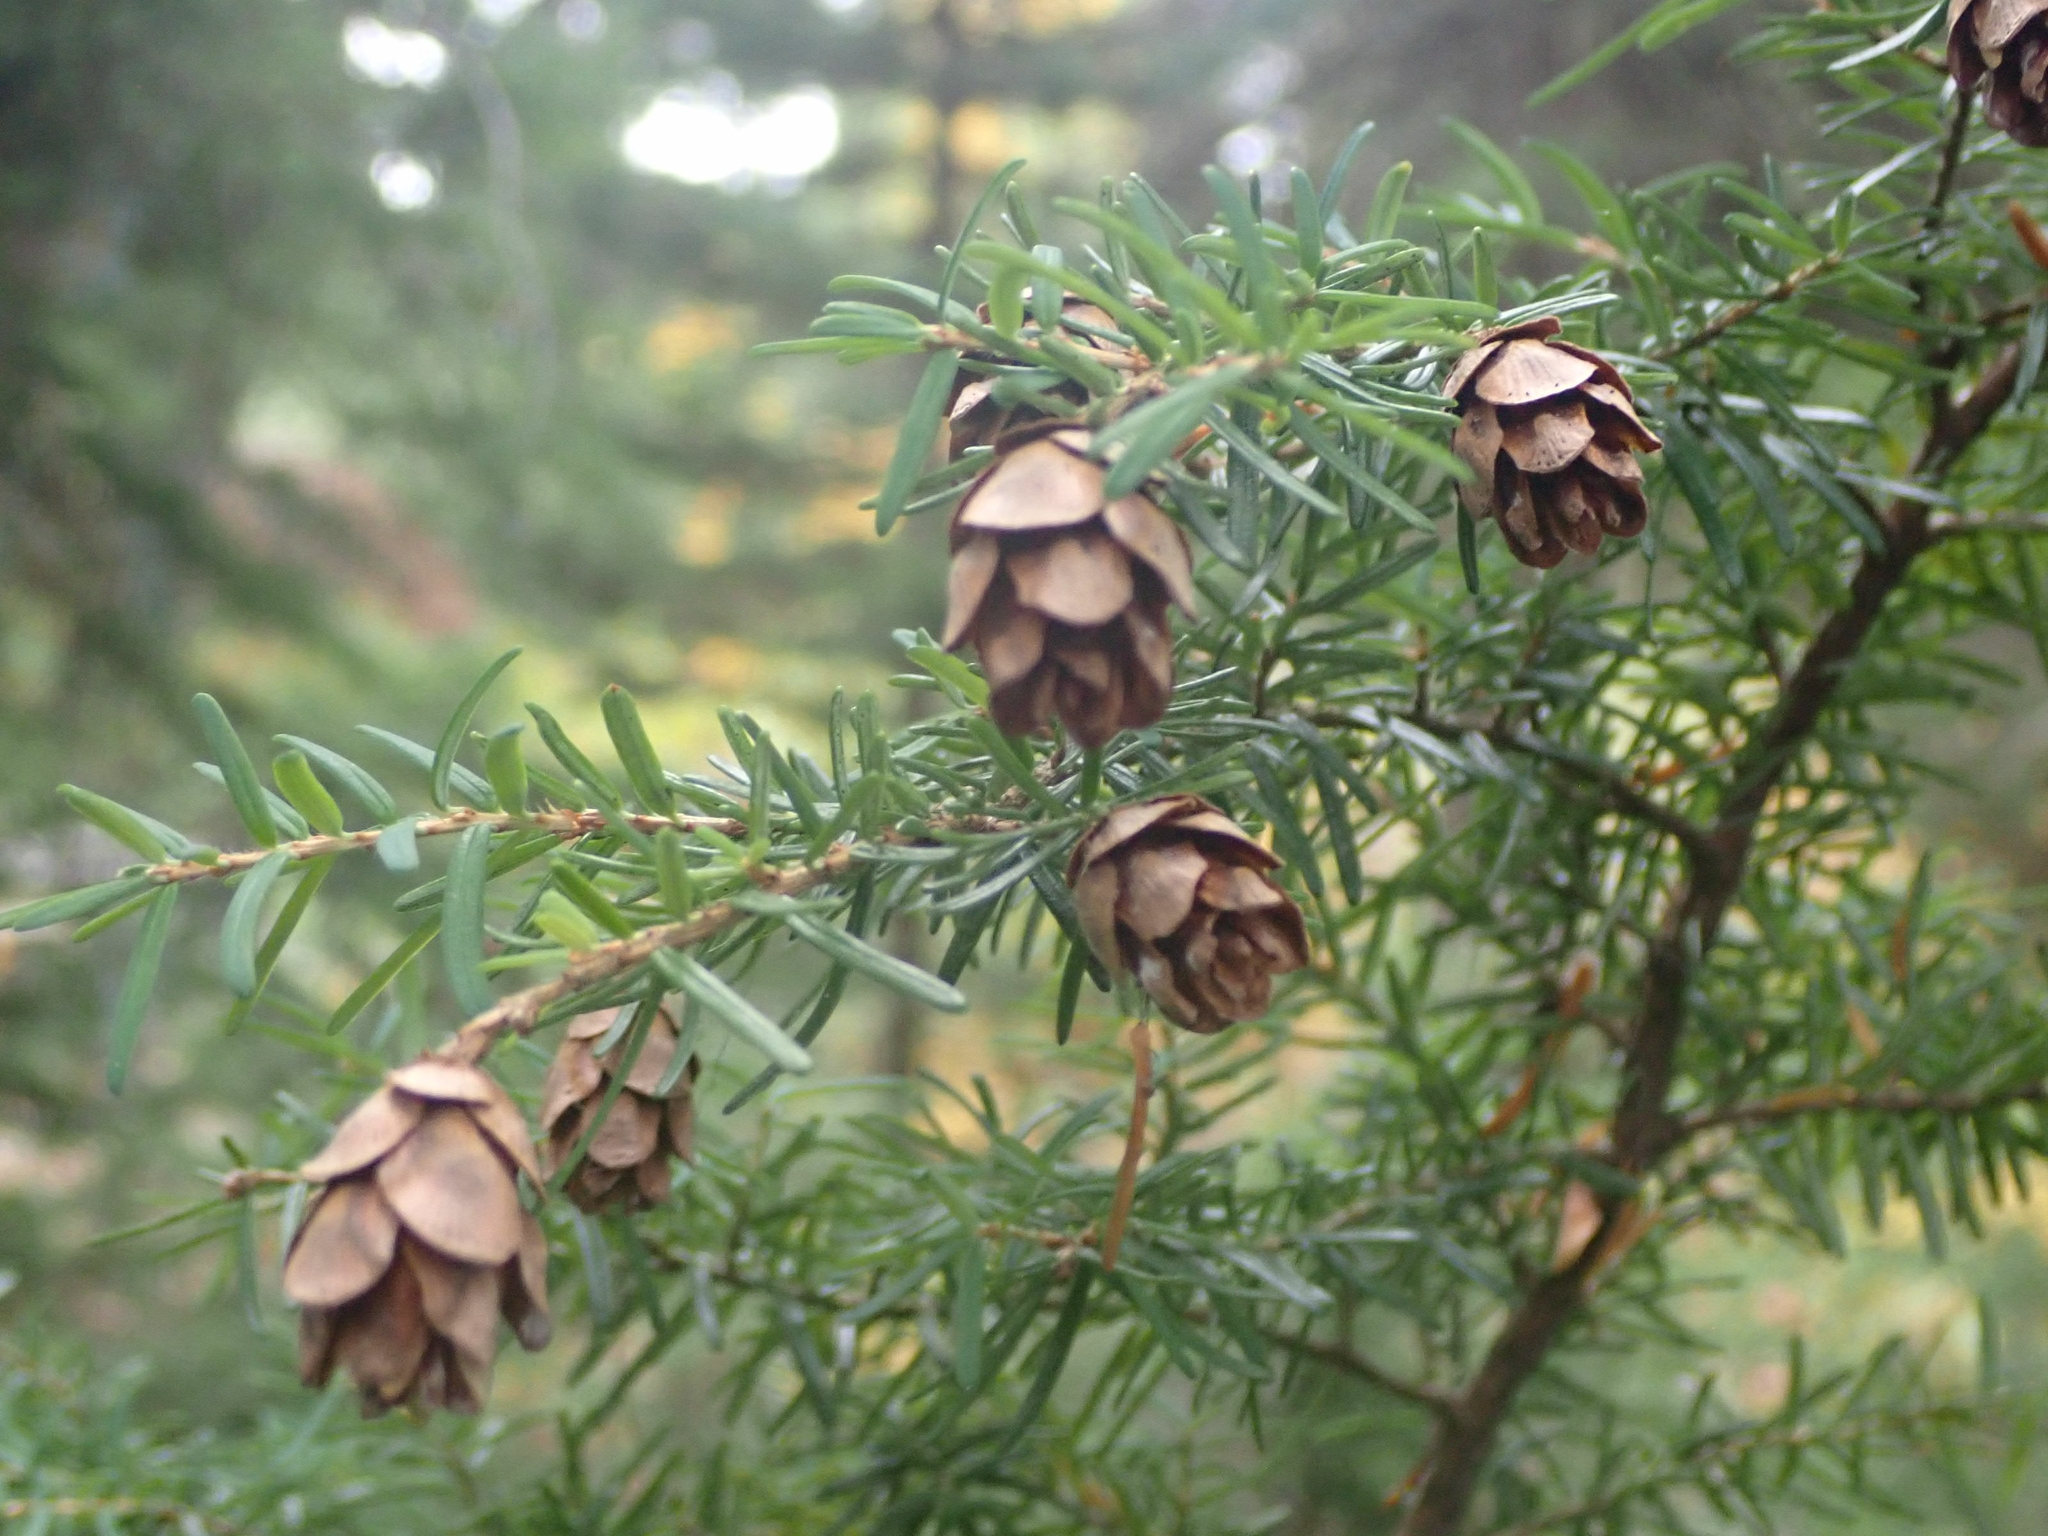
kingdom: Plantae
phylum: Tracheophyta
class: Pinopsida
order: Pinales
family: Pinaceae
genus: Tsuga
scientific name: Tsuga heterophylla
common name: Western hemlock
